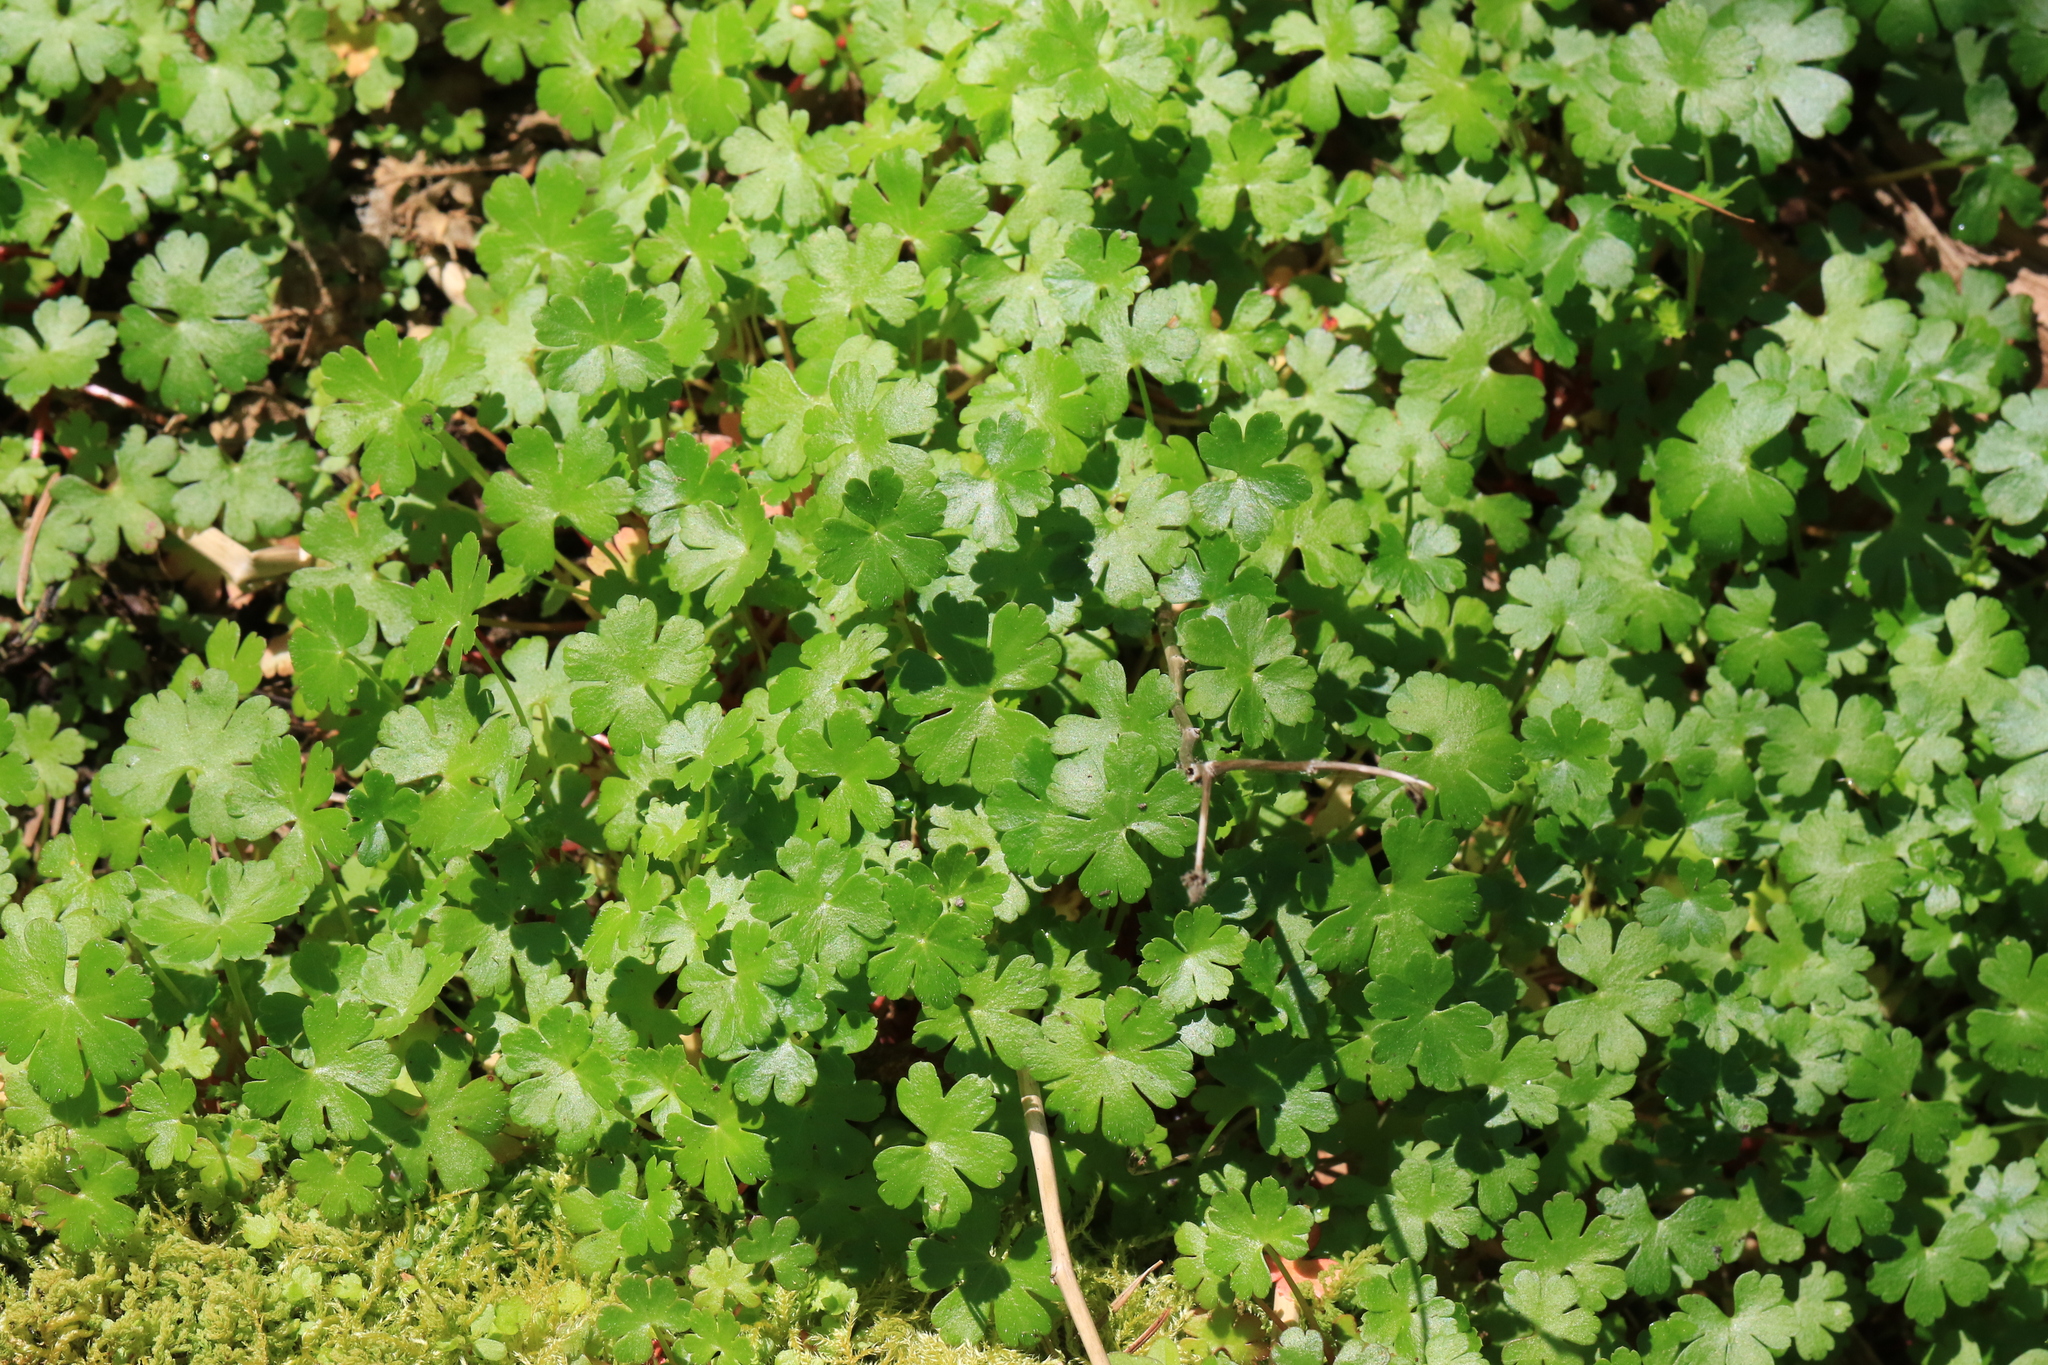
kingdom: Plantae
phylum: Tracheophyta
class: Magnoliopsida
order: Geraniales
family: Geraniaceae
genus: Geranium
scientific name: Geranium lucidum
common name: Shining crane's-bill
